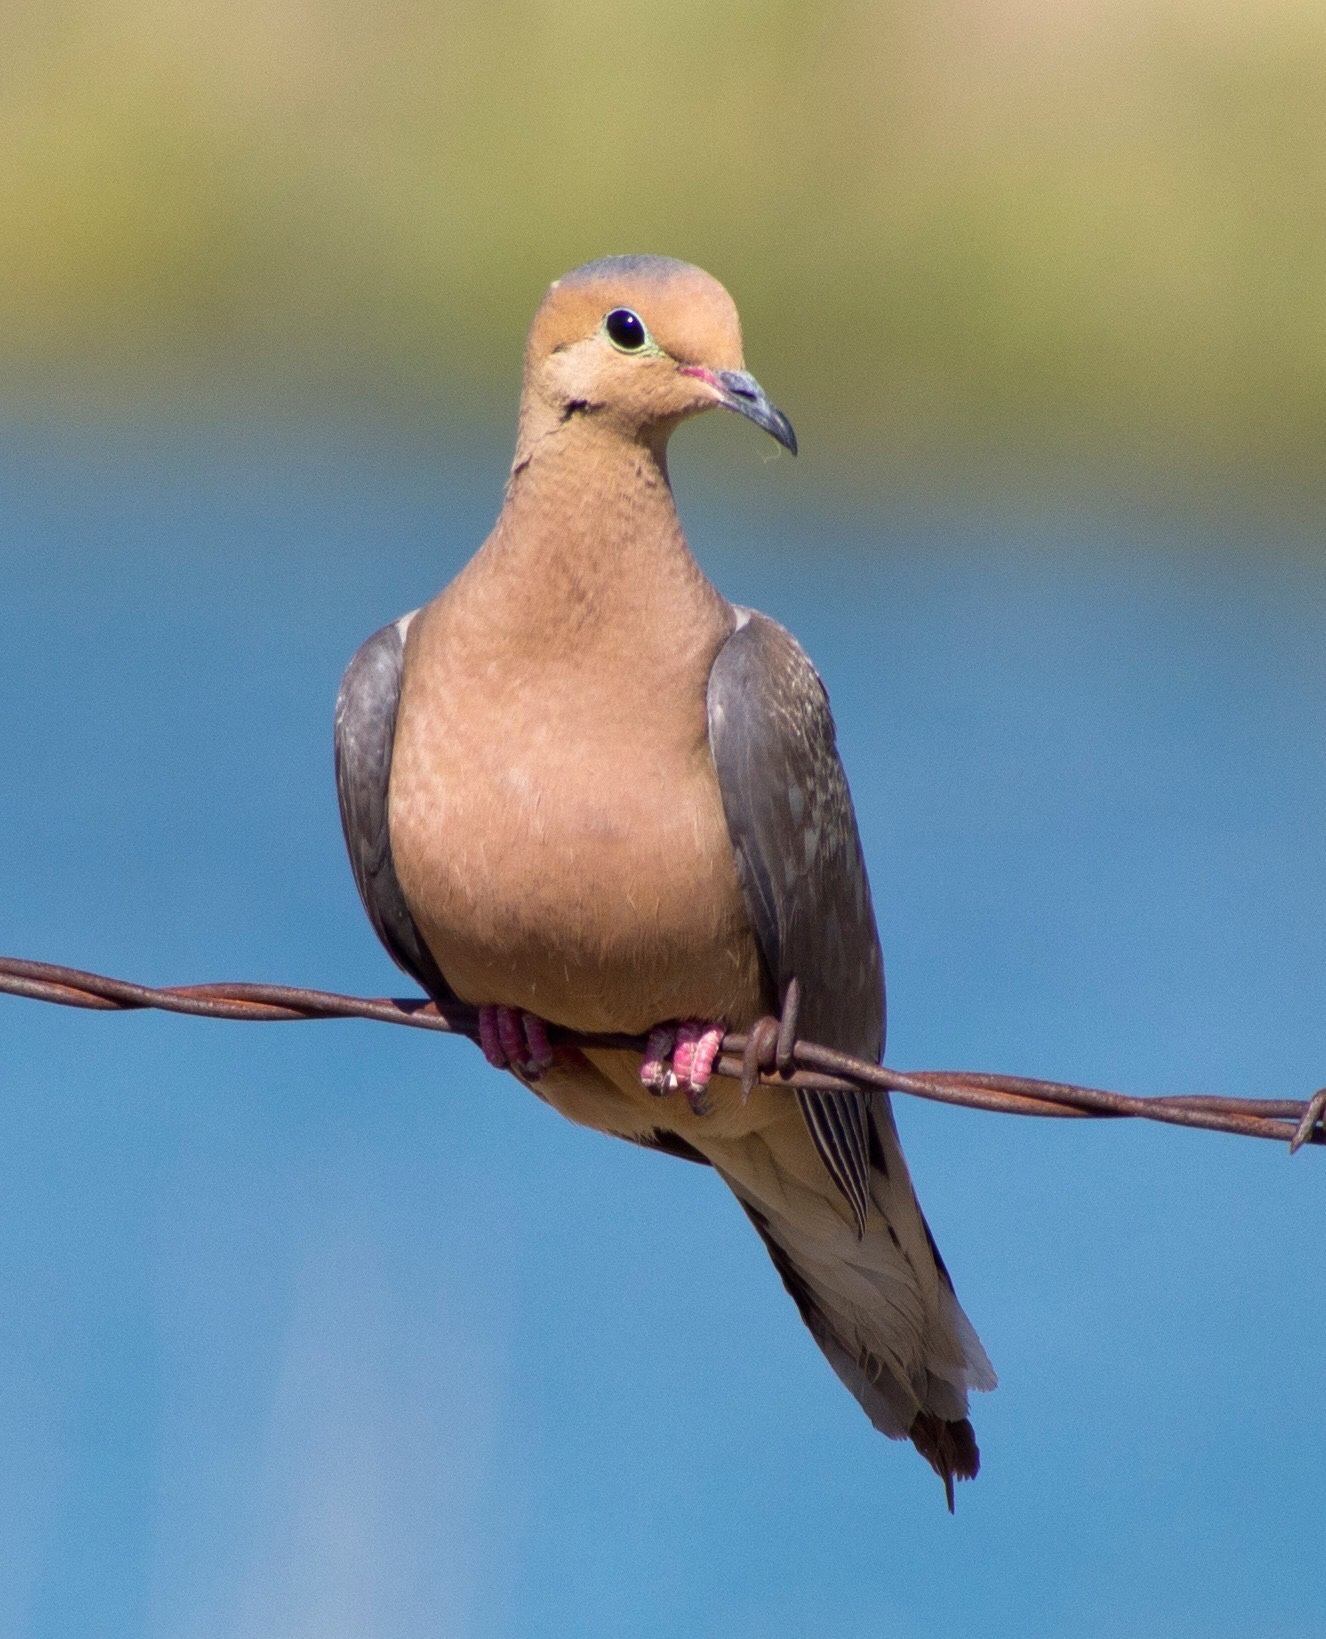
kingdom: Animalia
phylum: Chordata
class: Aves
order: Columbiformes
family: Columbidae
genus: Zenaida
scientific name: Zenaida macroura
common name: Mourning dove
